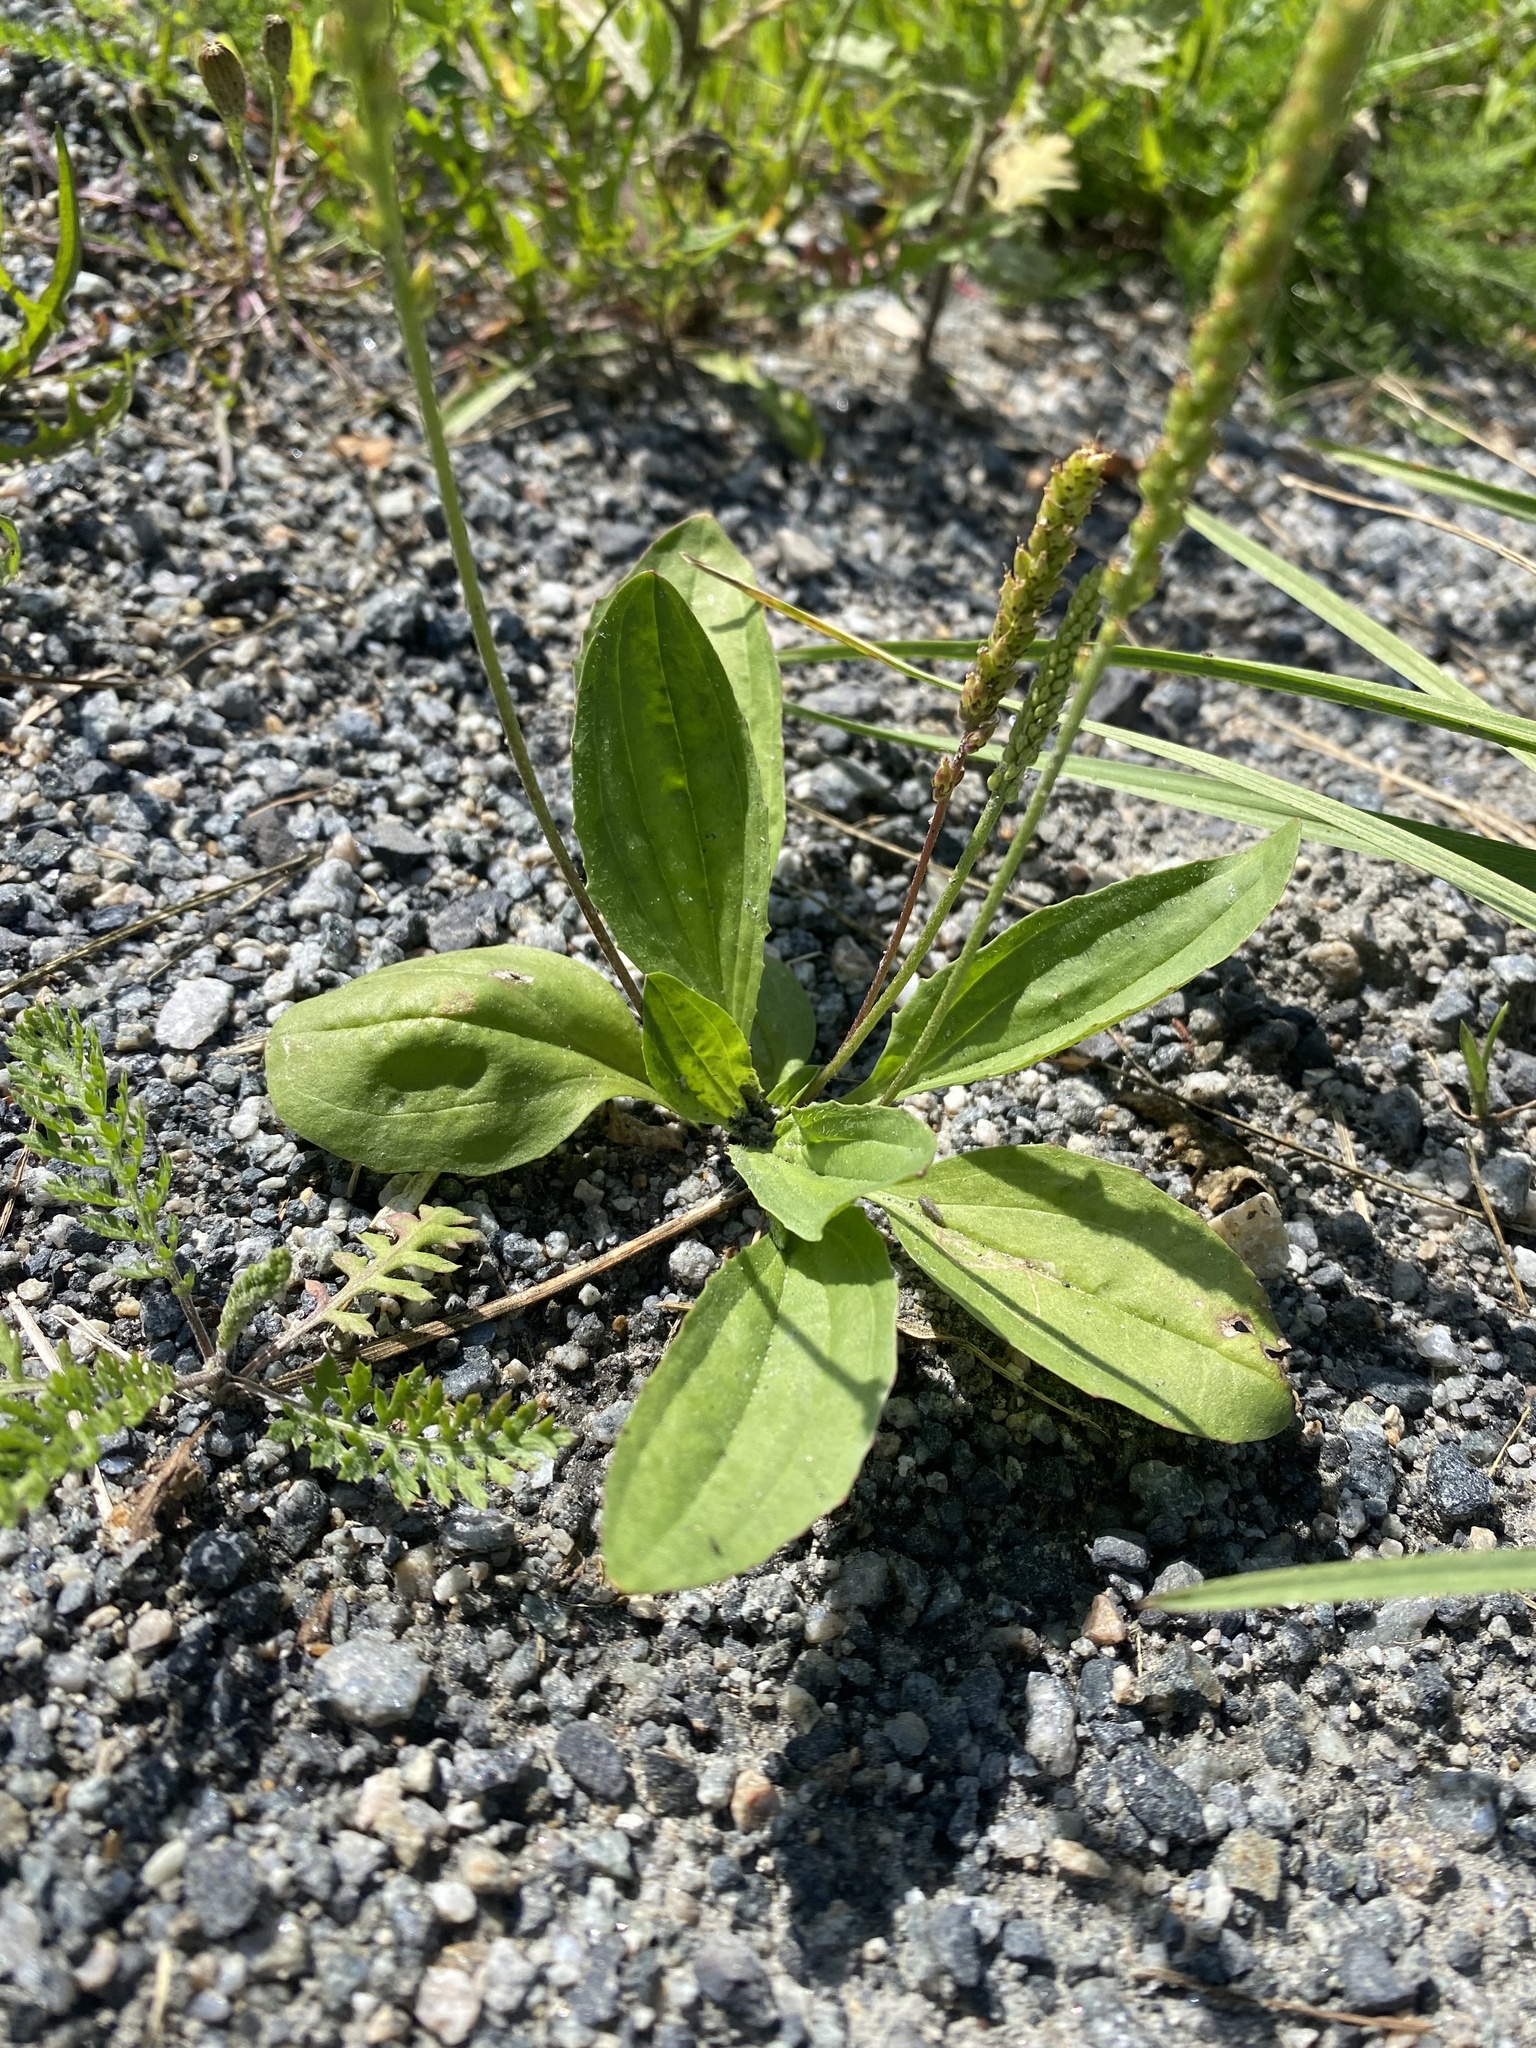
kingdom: Plantae
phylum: Tracheophyta
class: Magnoliopsida
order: Lamiales
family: Plantaginaceae
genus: Plantago
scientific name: Plantago depressa
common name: Depressed plantain
